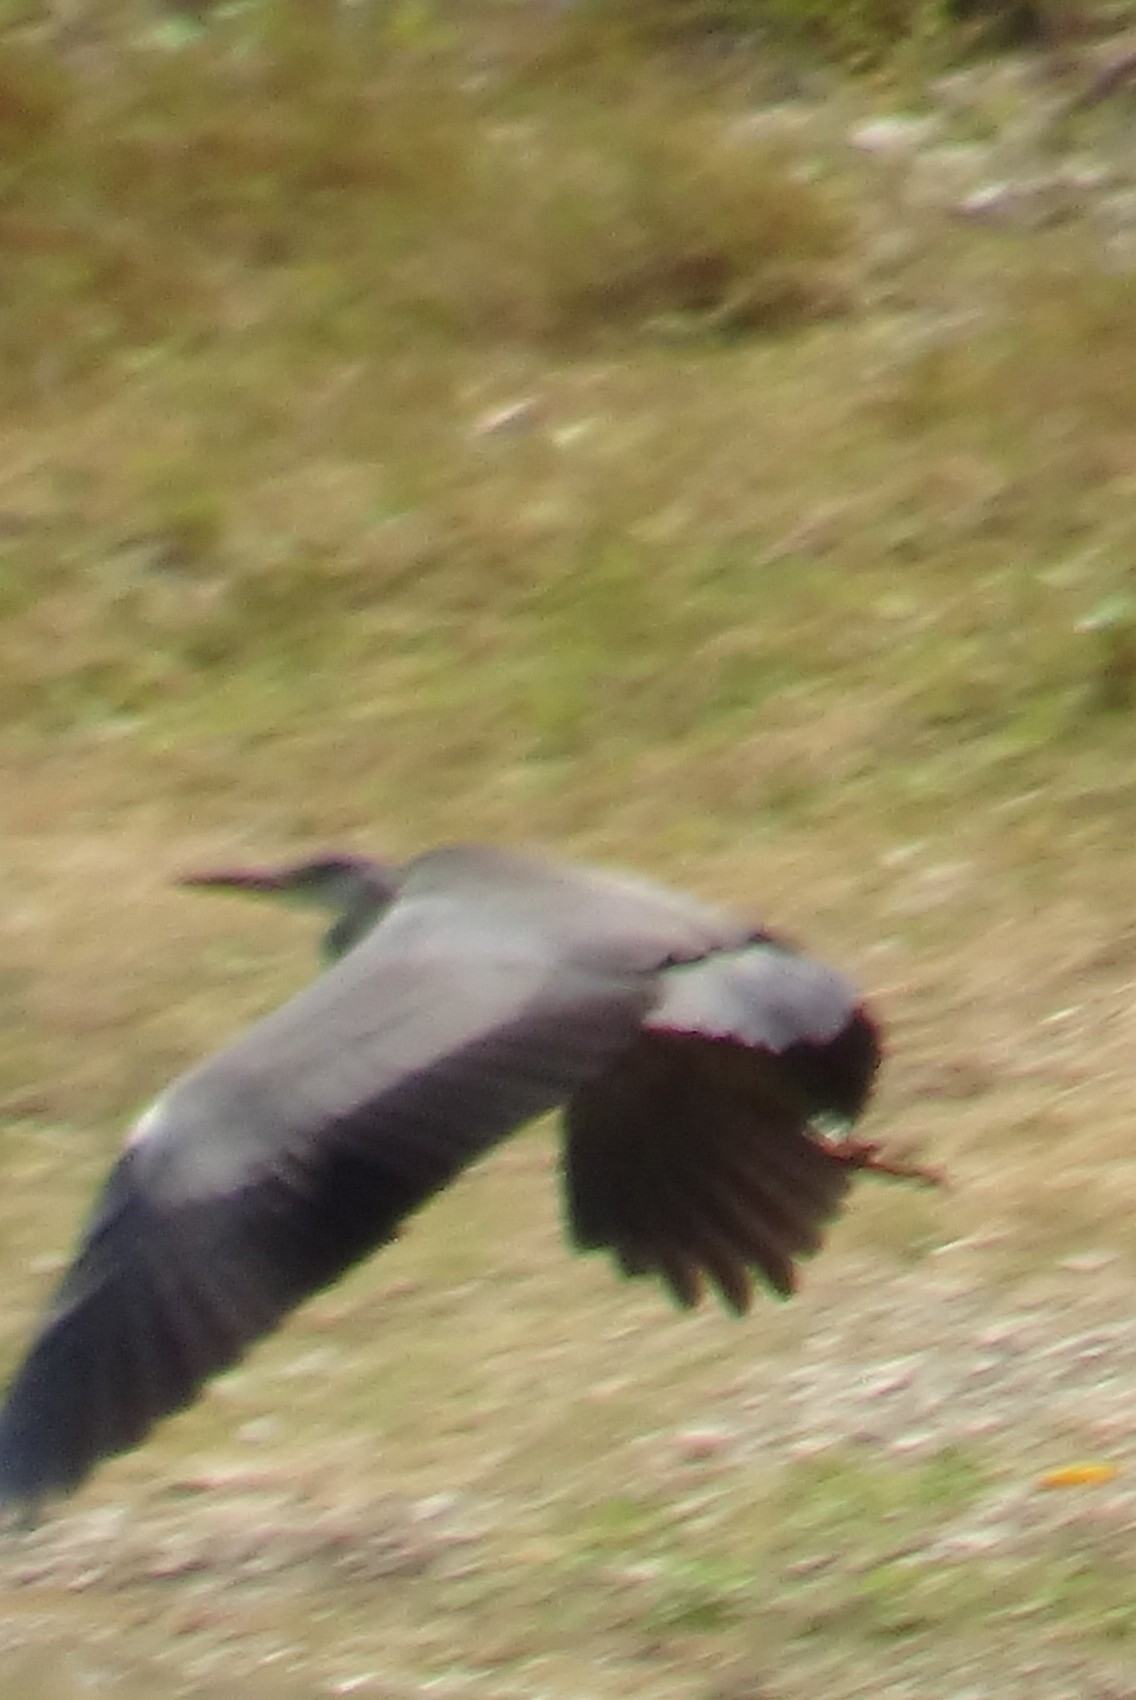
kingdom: Animalia
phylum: Chordata
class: Aves
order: Pelecaniformes
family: Ardeidae
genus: Ardea
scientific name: Ardea cinerea
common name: Grey heron
